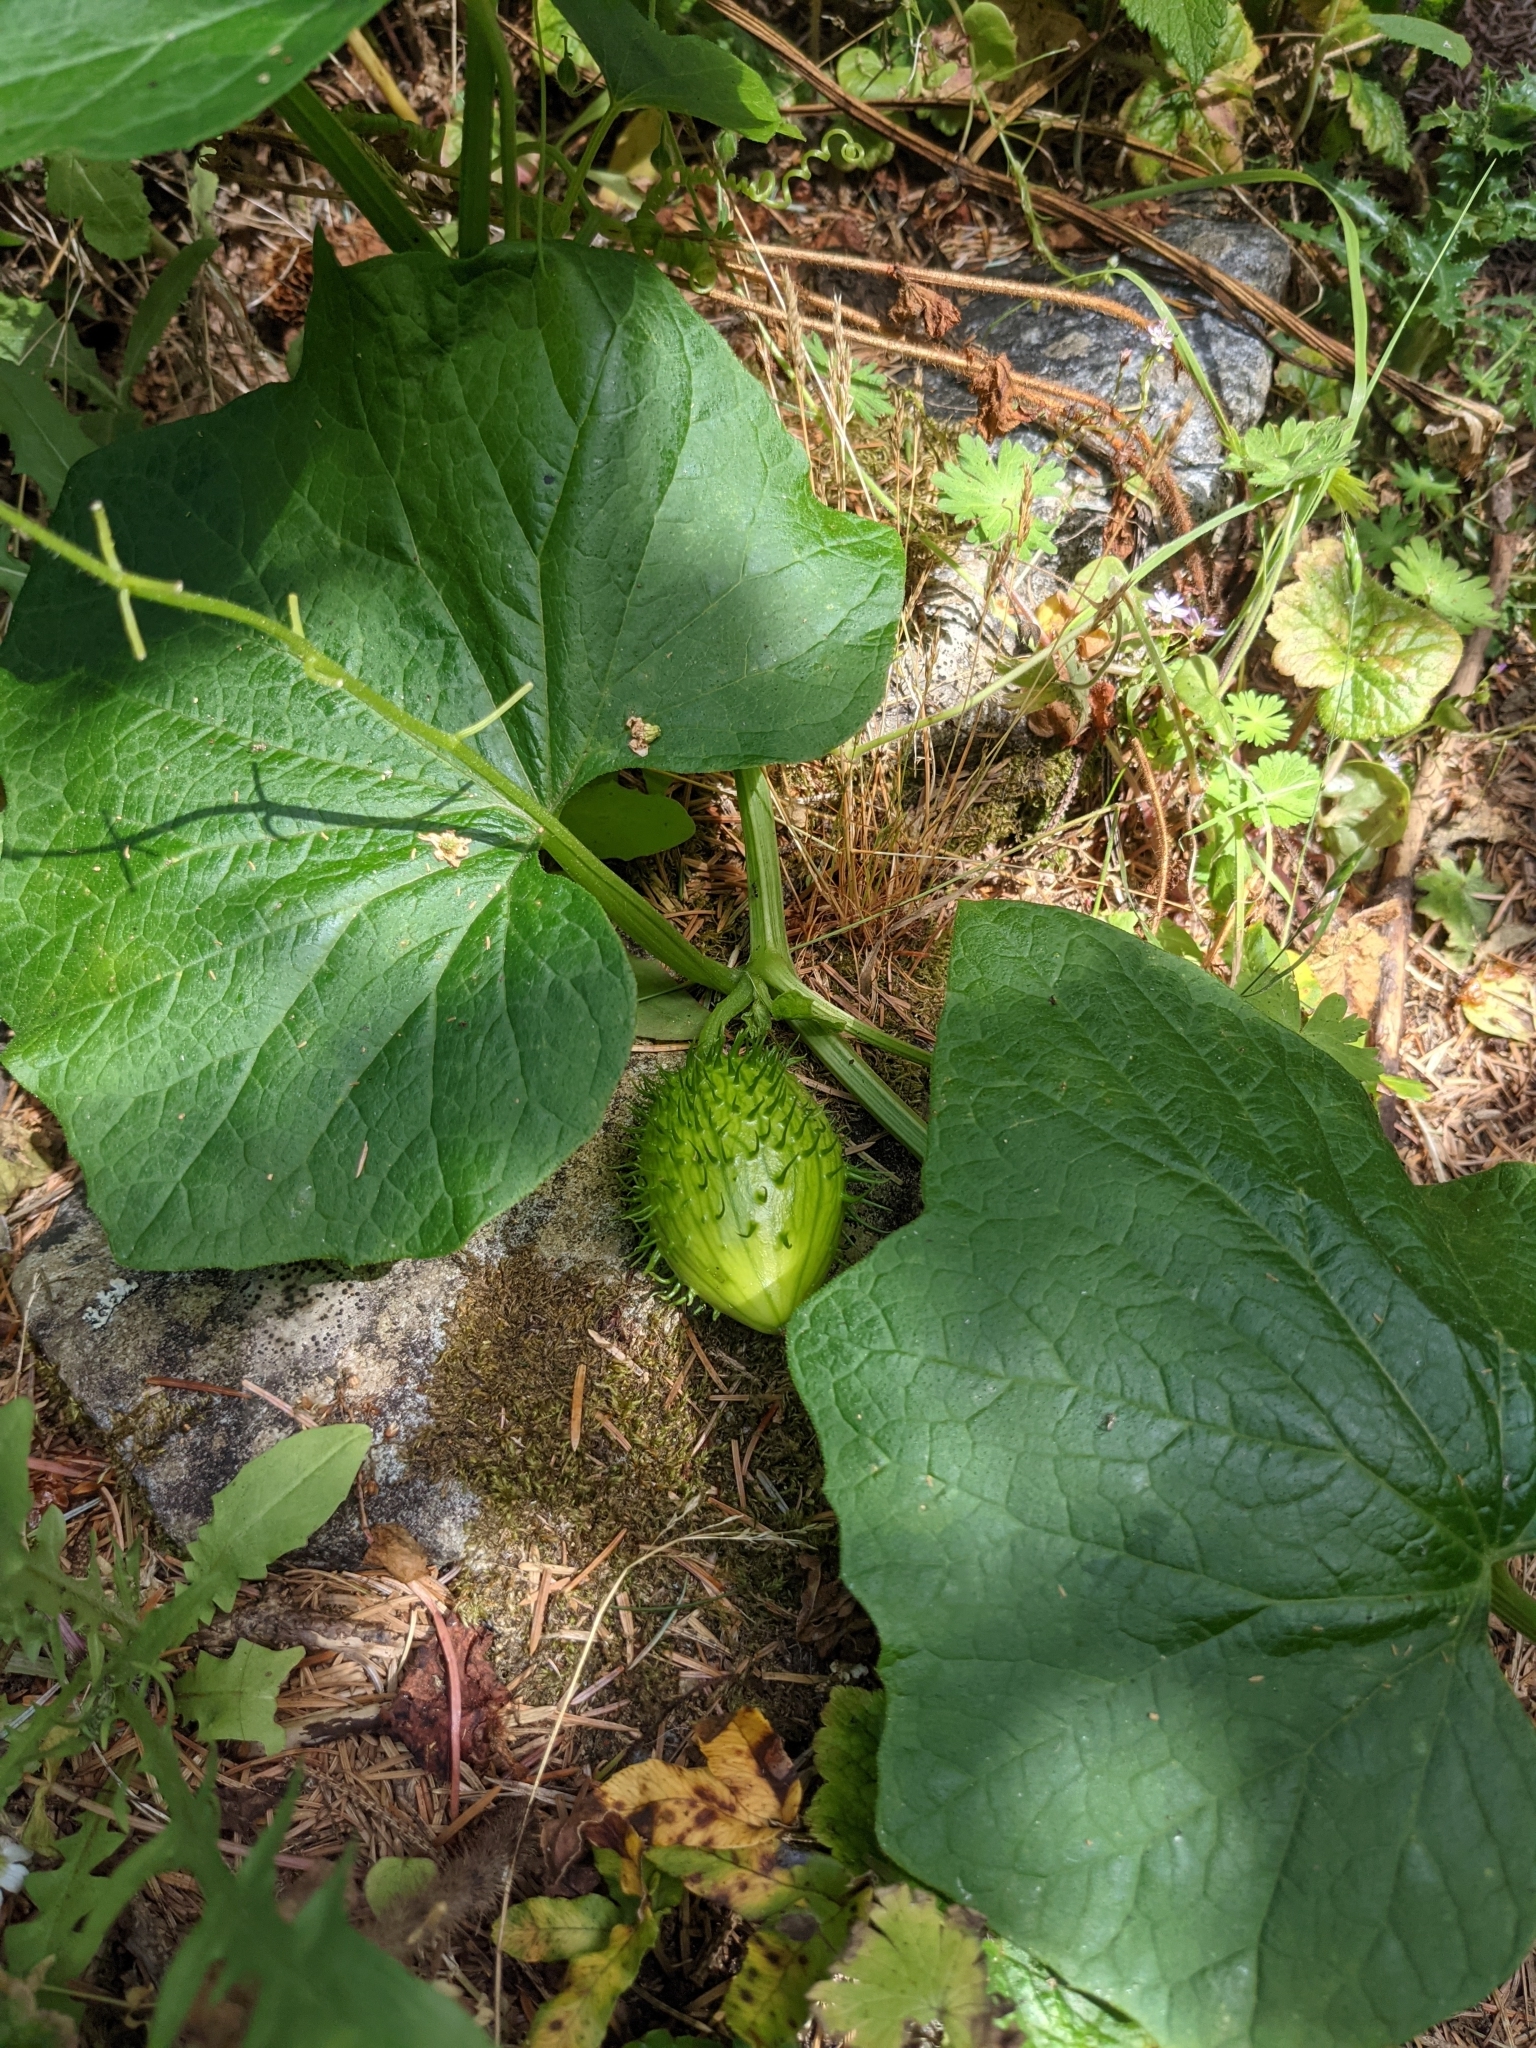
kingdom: Plantae
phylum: Tracheophyta
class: Magnoliopsida
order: Cucurbitales
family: Cucurbitaceae
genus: Marah
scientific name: Marah oregana
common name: Coastal manroot
